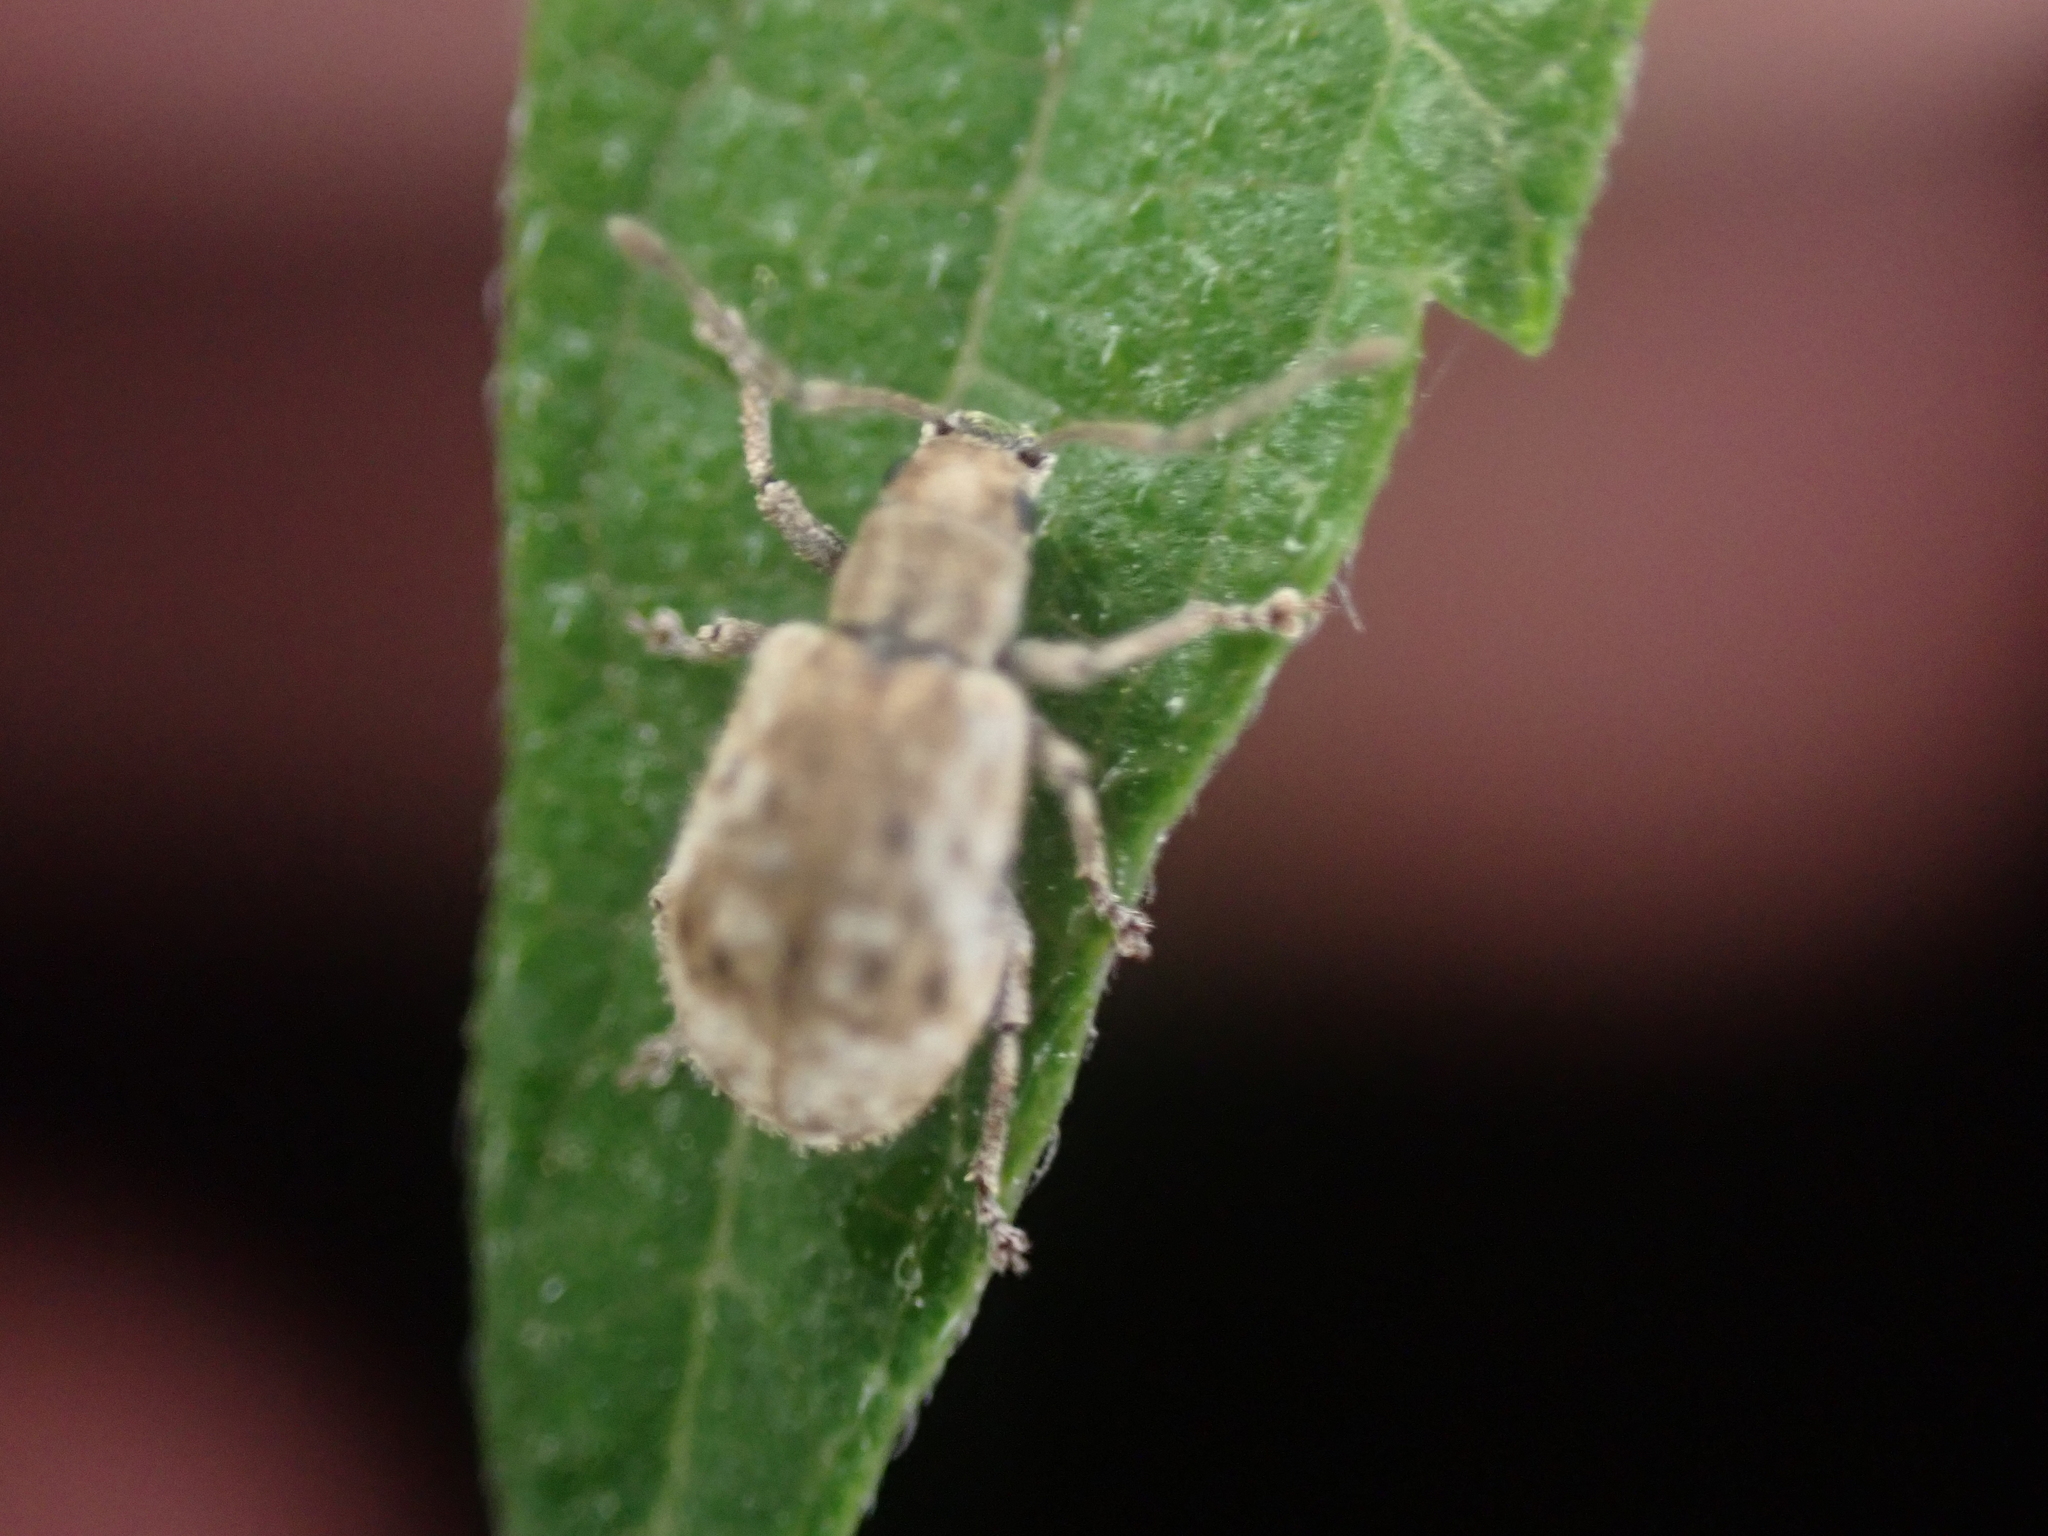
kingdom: Animalia
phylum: Arthropoda
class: Insecta
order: Coleoptera
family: Curculionidae
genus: Pseudoedophrys
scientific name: Pseudoedophrys hilleri
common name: Weevil
